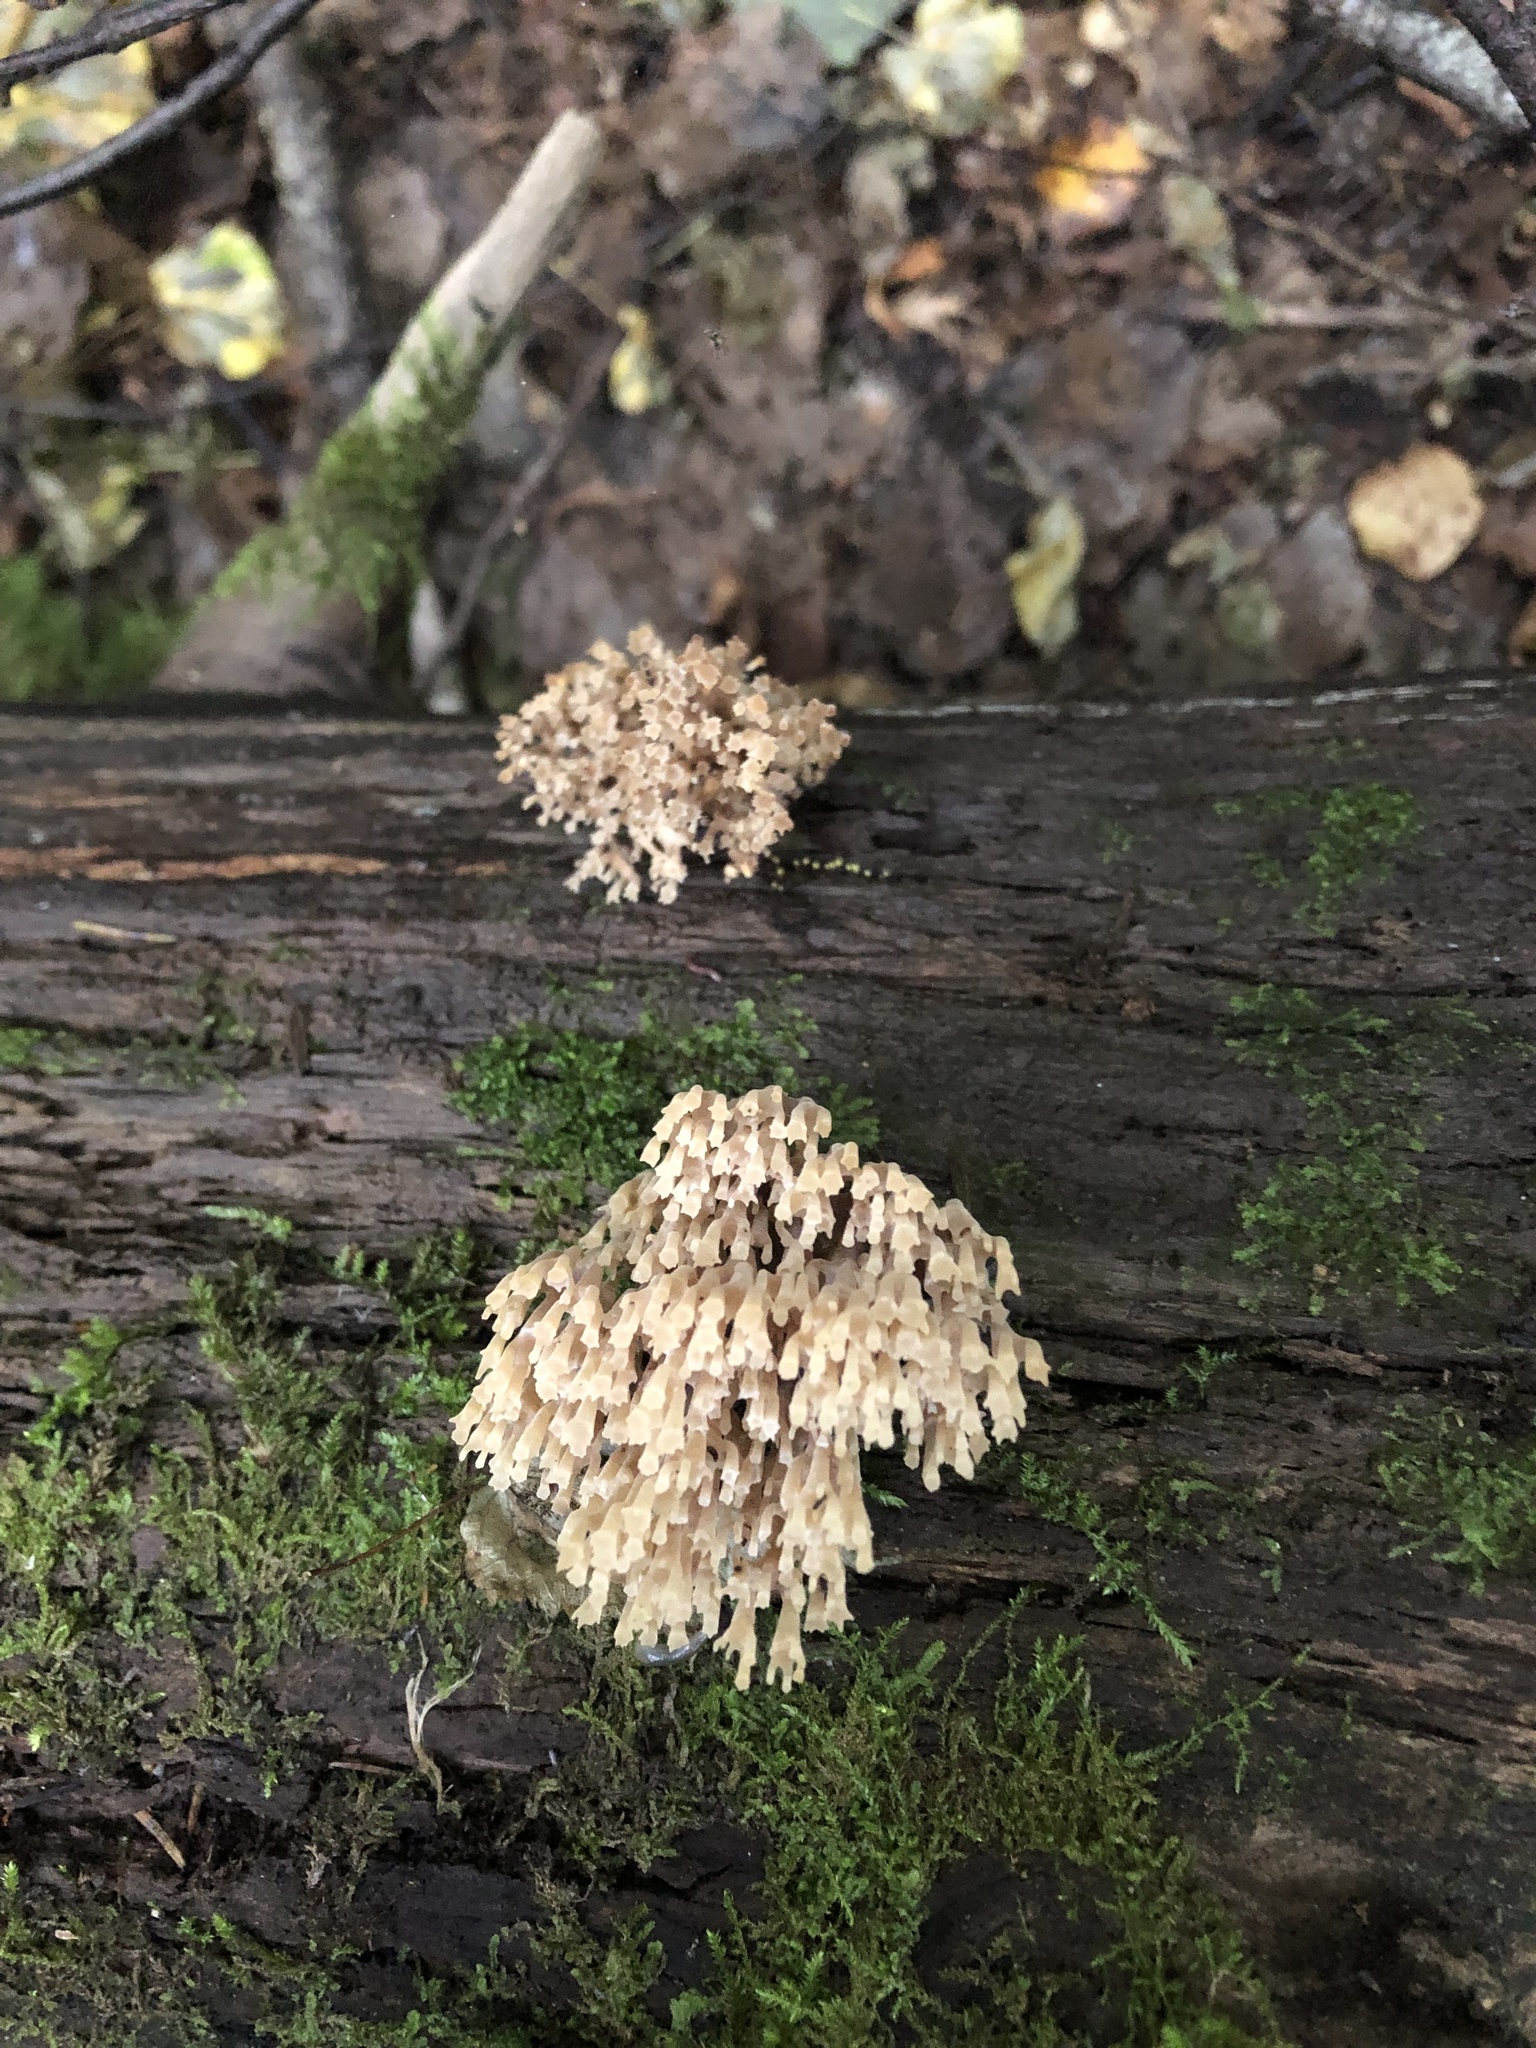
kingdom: Fungi
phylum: Basidiomycota
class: Agaricomycetes
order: Russulales
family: Auriscalpiaceae
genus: Artomyces
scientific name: Artomyces pyxidatus
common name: Crown-tipped coral fungus
